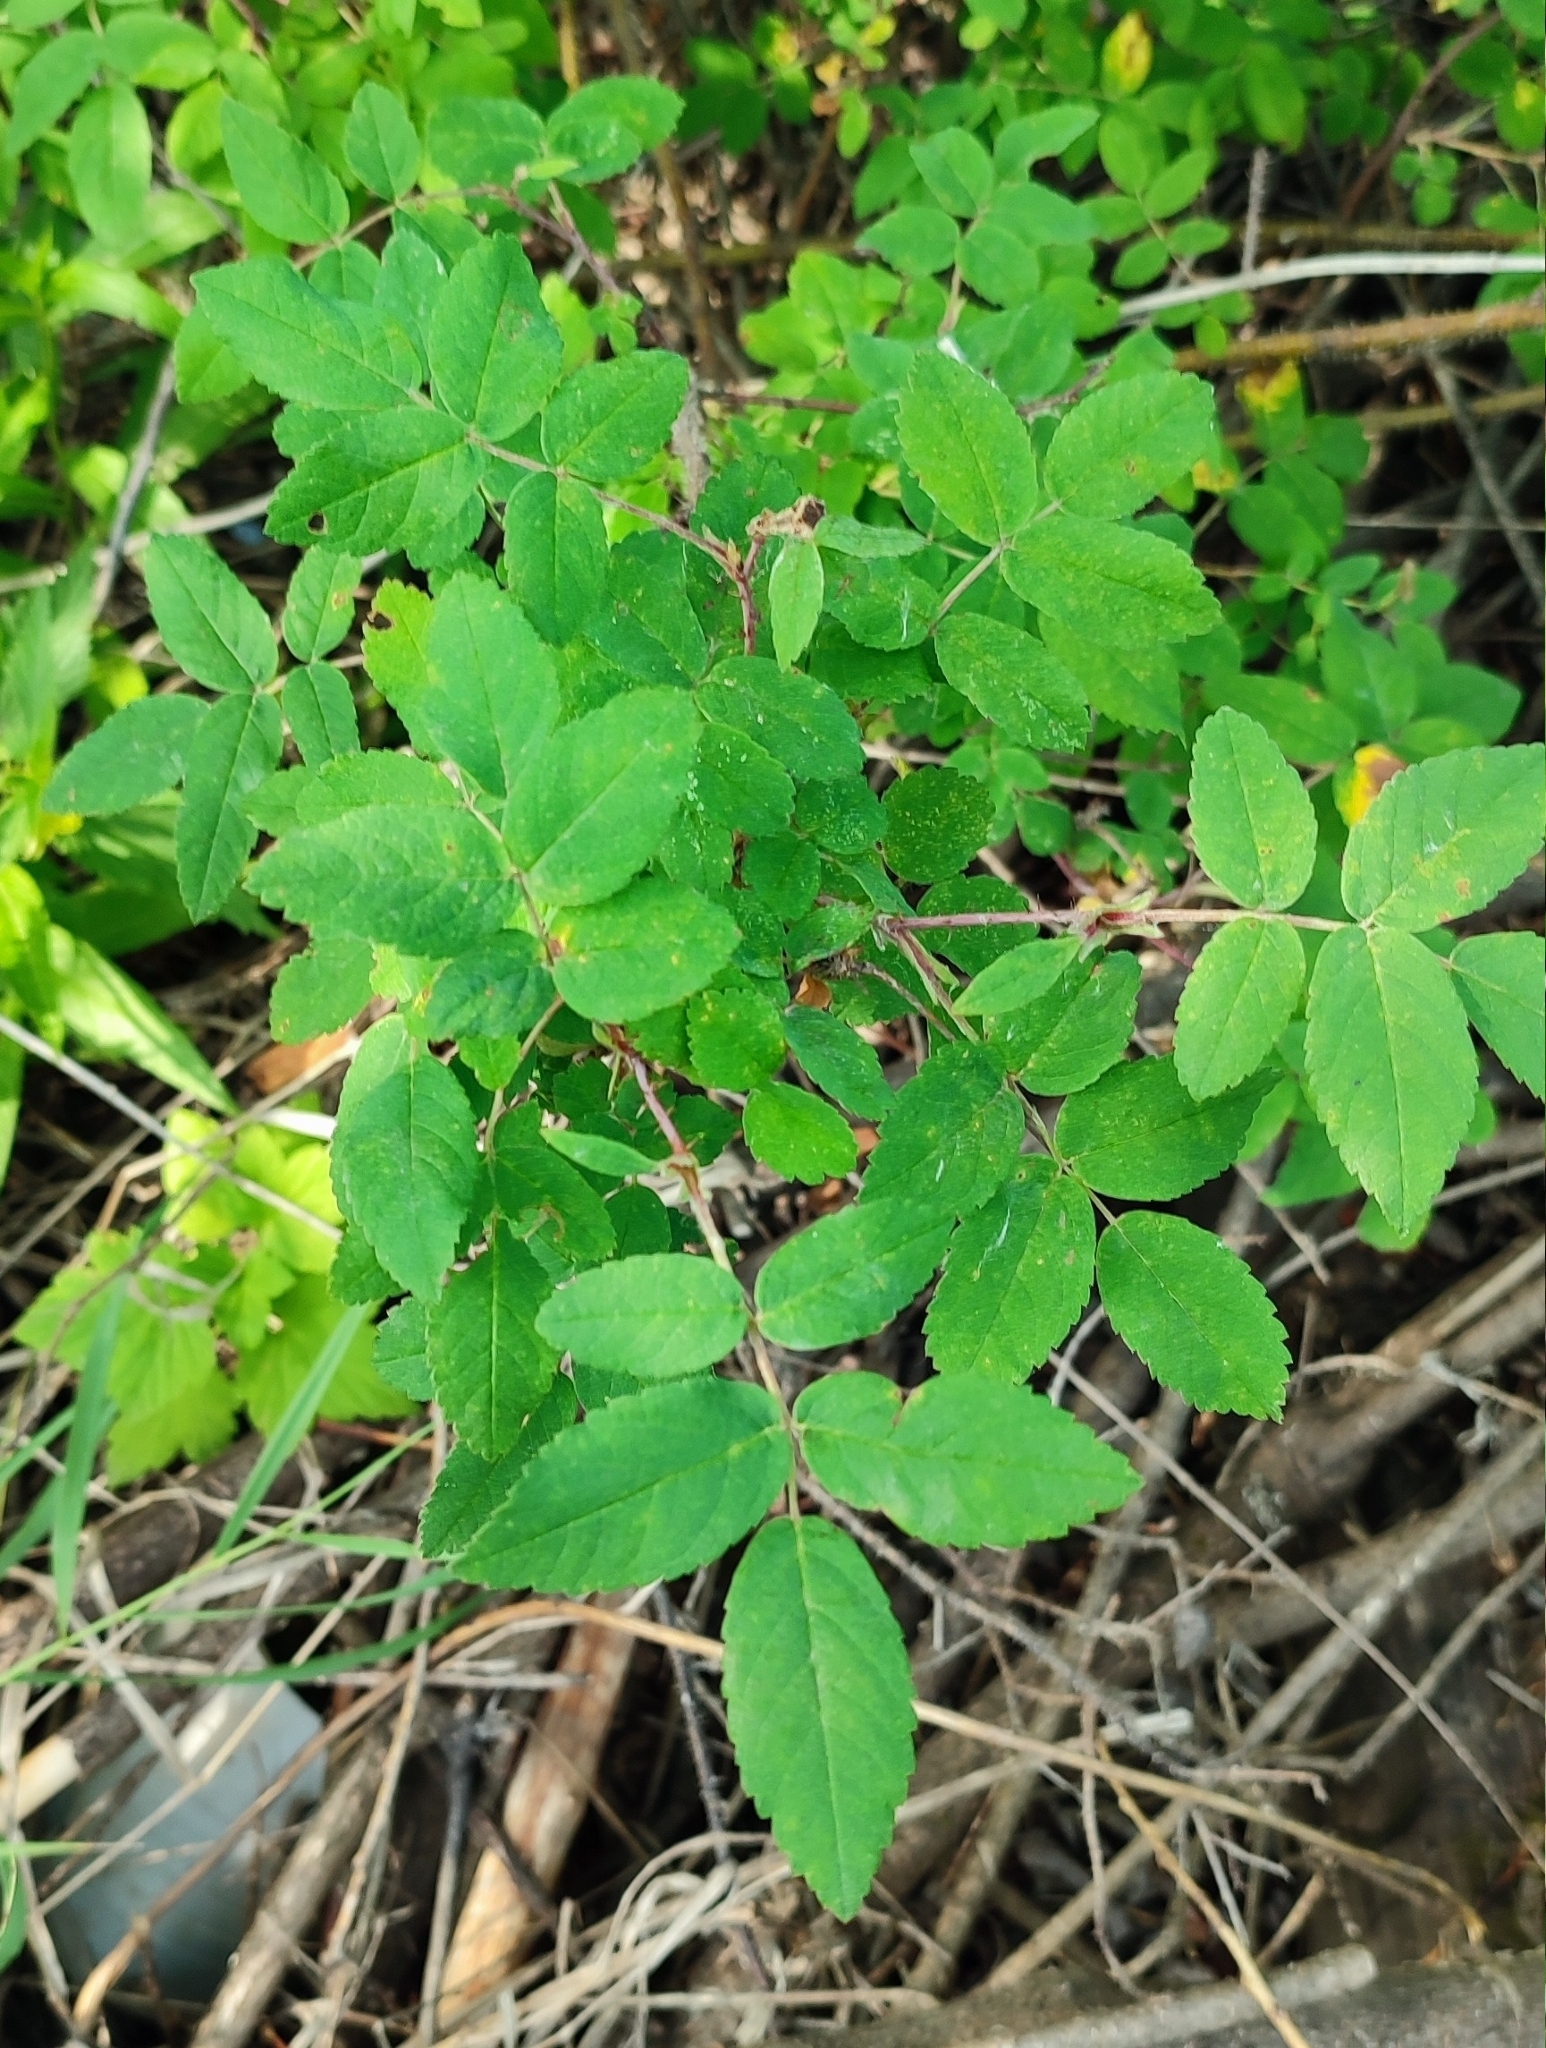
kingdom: Plantae
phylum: Tracheophyta
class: Magnoliopsida
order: Rosales
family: Rosaceae
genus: Rosa
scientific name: Rosa acicularis
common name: Prickly rose
